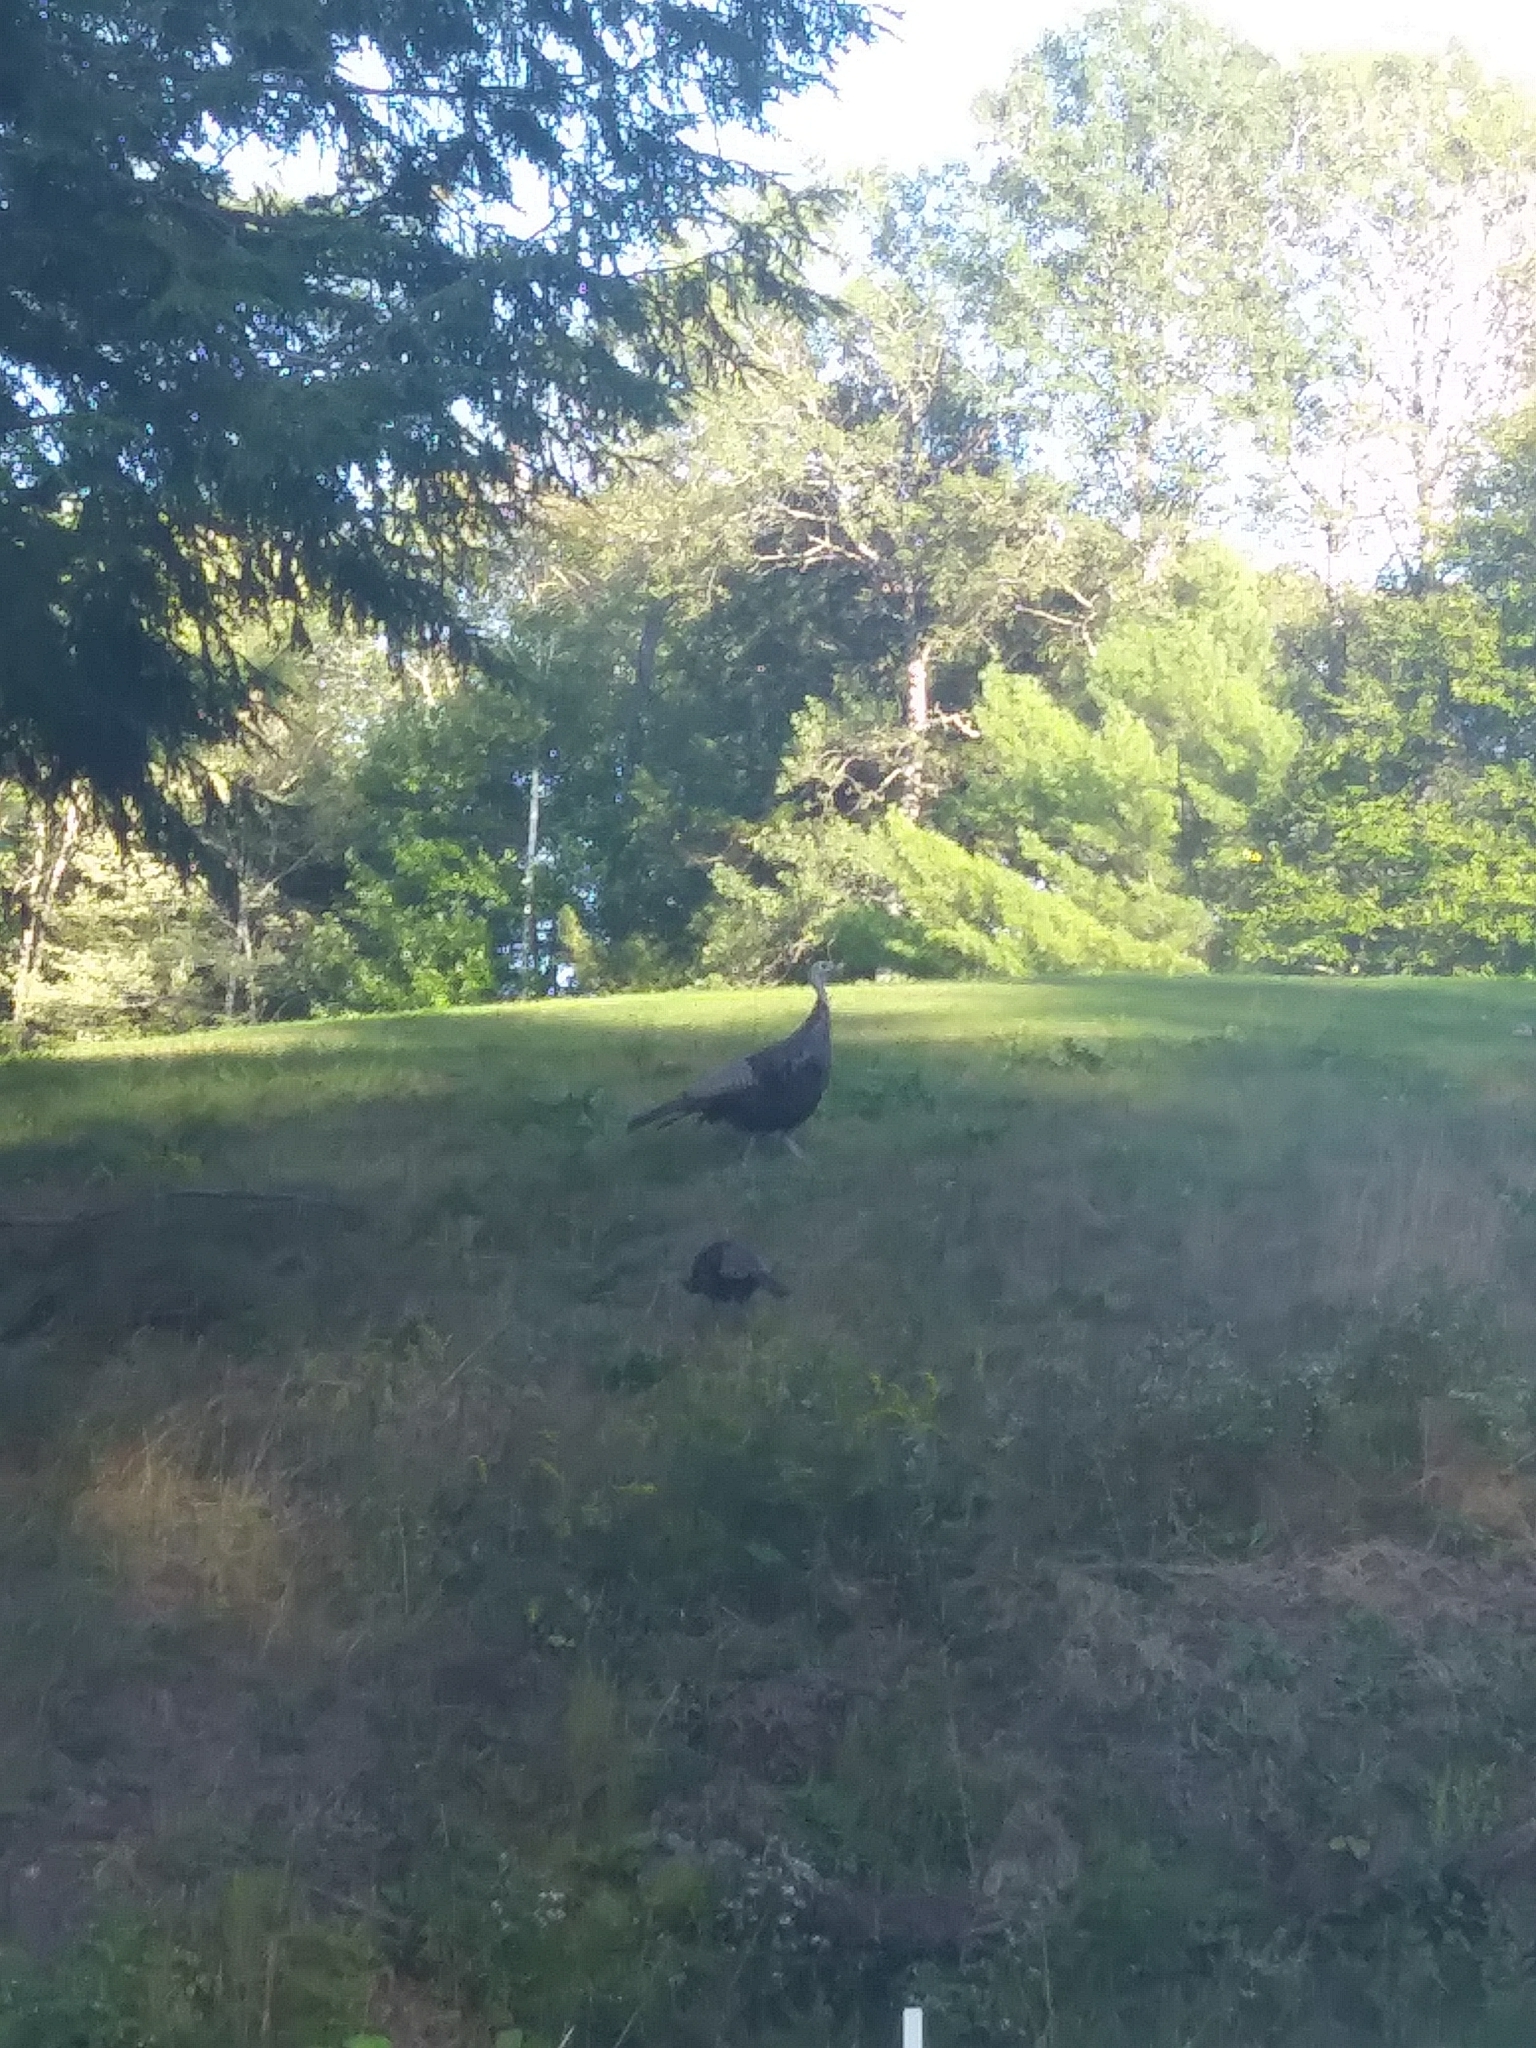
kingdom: Animalia
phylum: Chordata
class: Aves
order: Galliformes
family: Phasianidae
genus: Meleagris
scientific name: Meleagris gallopavo
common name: Wild turkey
